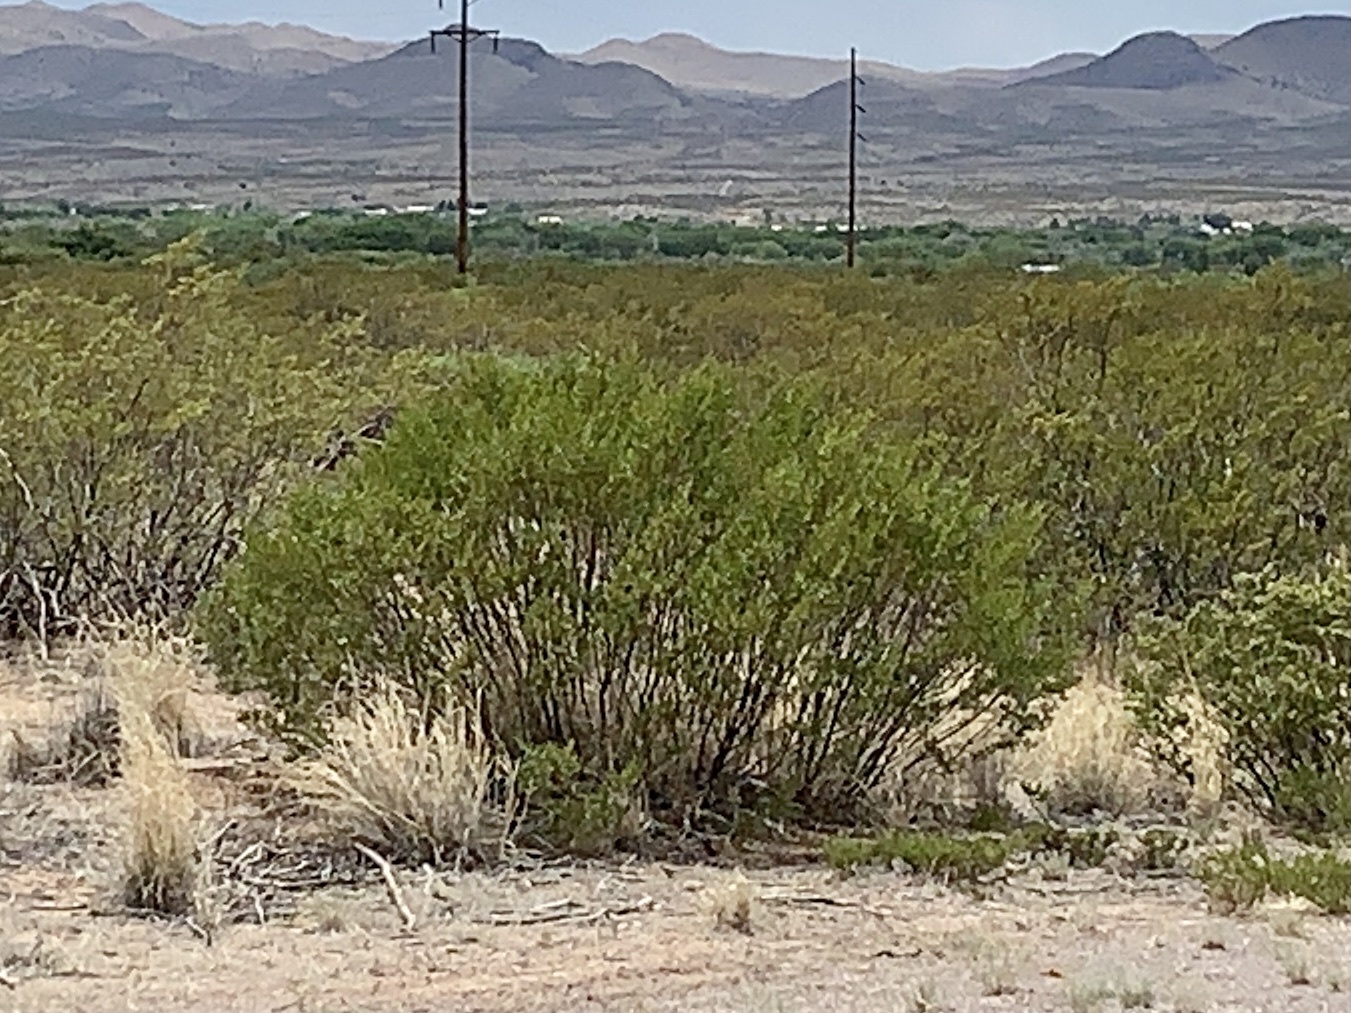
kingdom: Plantae
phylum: Tracheophyta
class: Magnoliopsida
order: Zygophyllales
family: Zygophyllaceae
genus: Larrea
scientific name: Larrea tridentata
